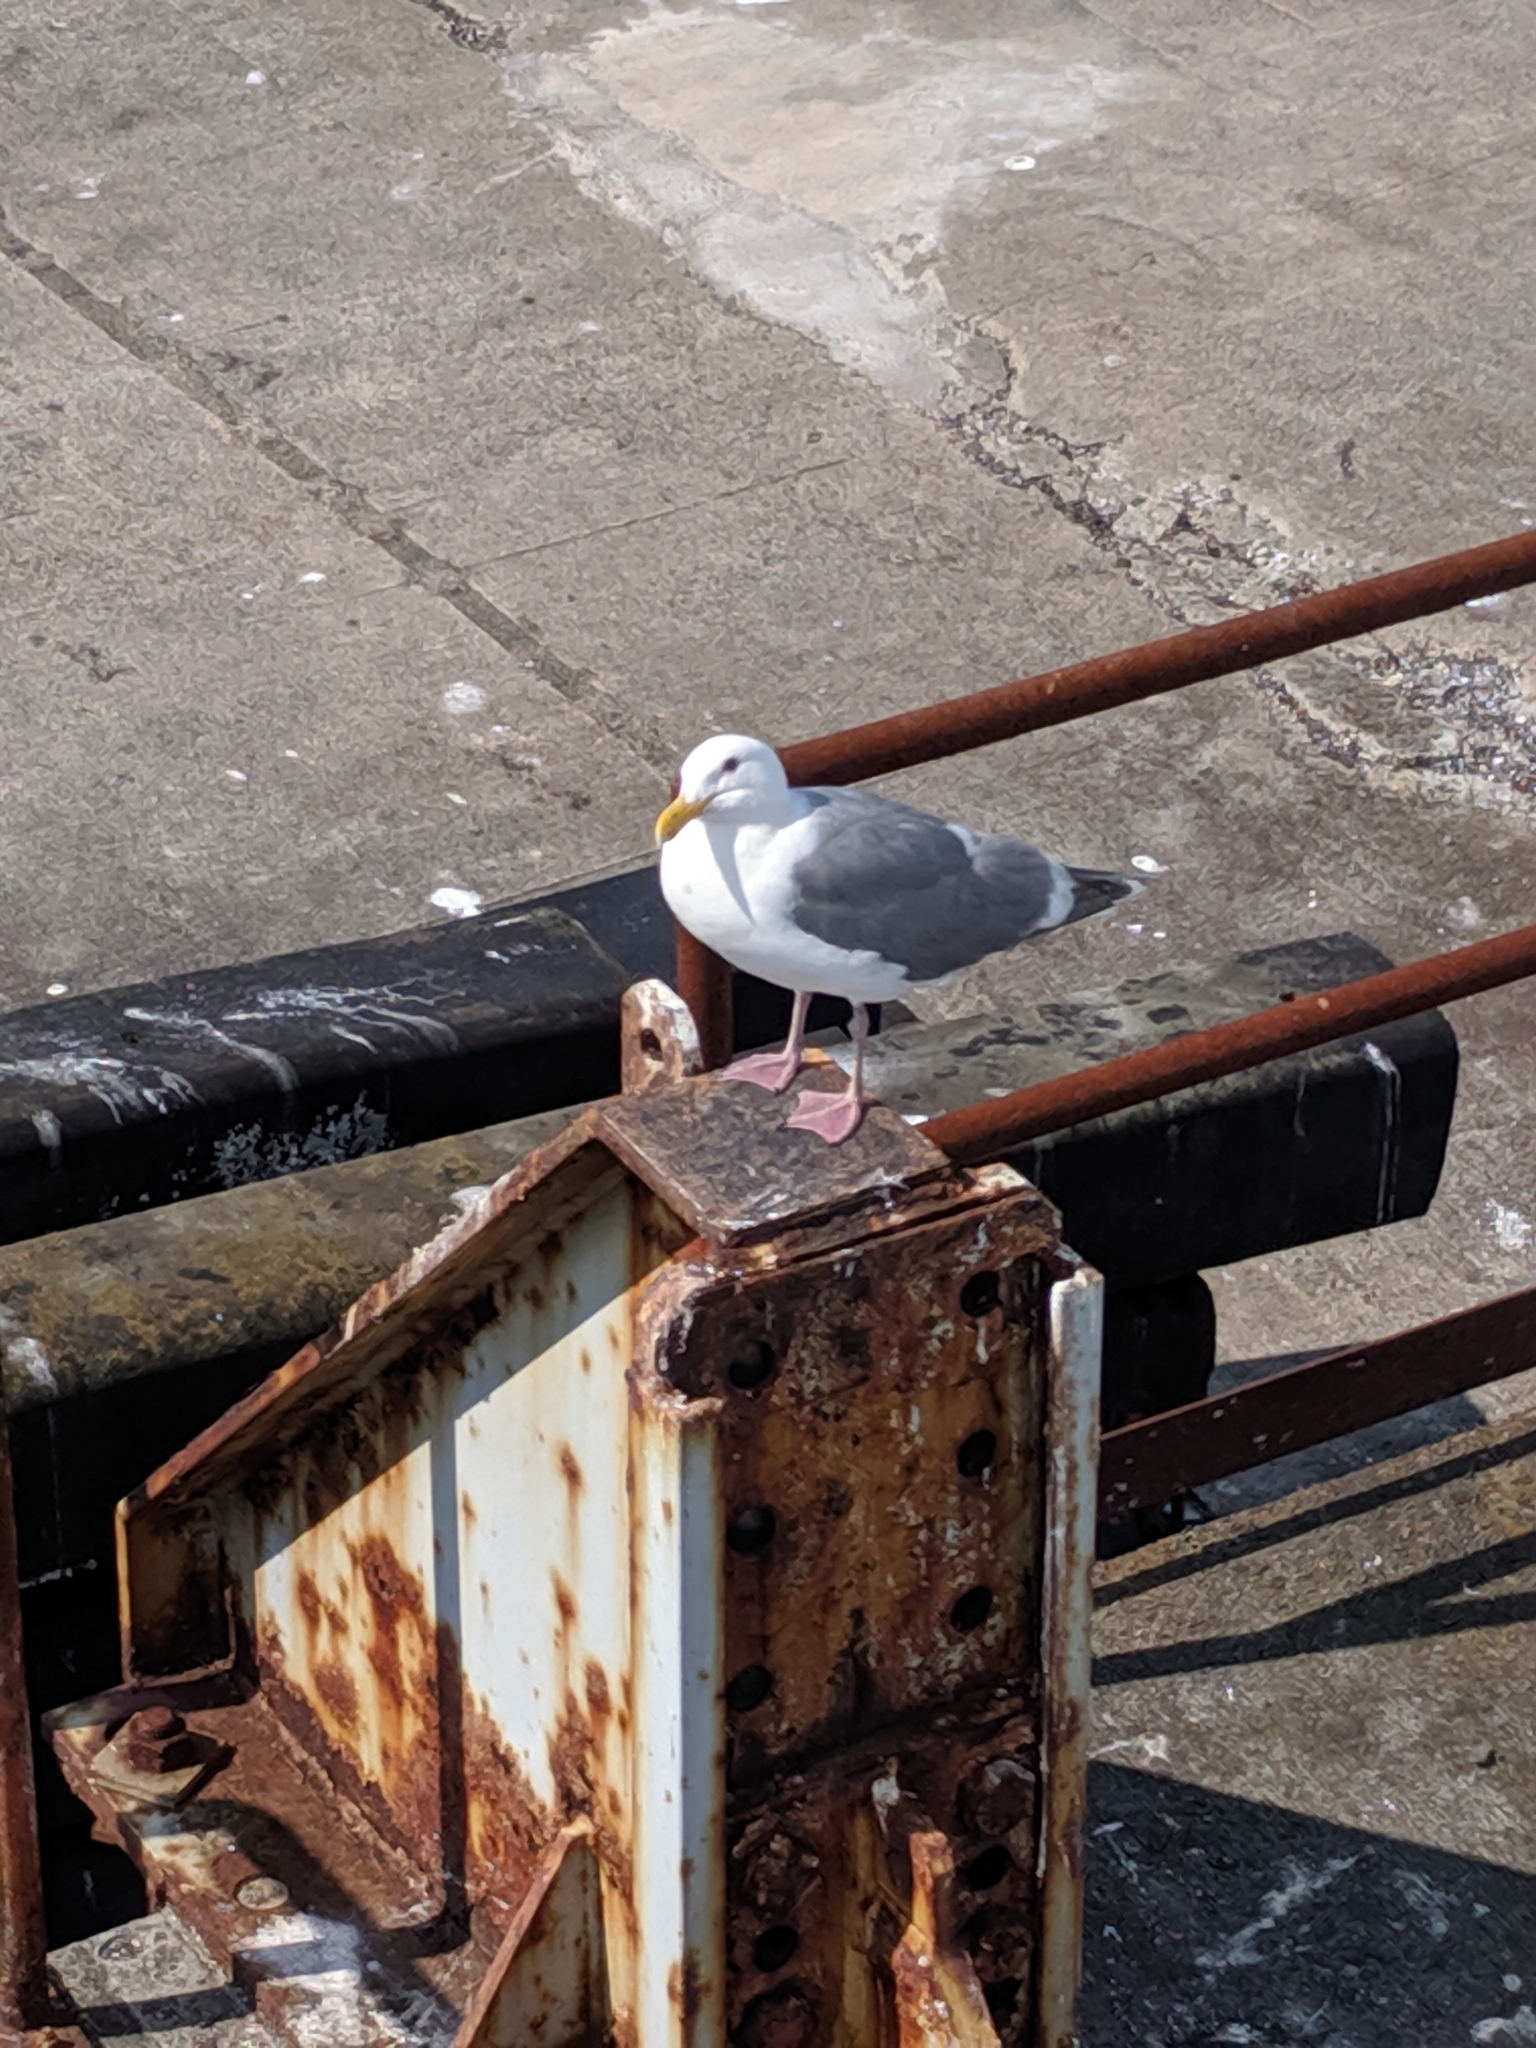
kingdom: Animalia
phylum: Chordata
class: Aves
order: Charadriiformes
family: Laridae
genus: Larus
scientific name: Larus glaucescens
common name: Glaucous-winged gull
